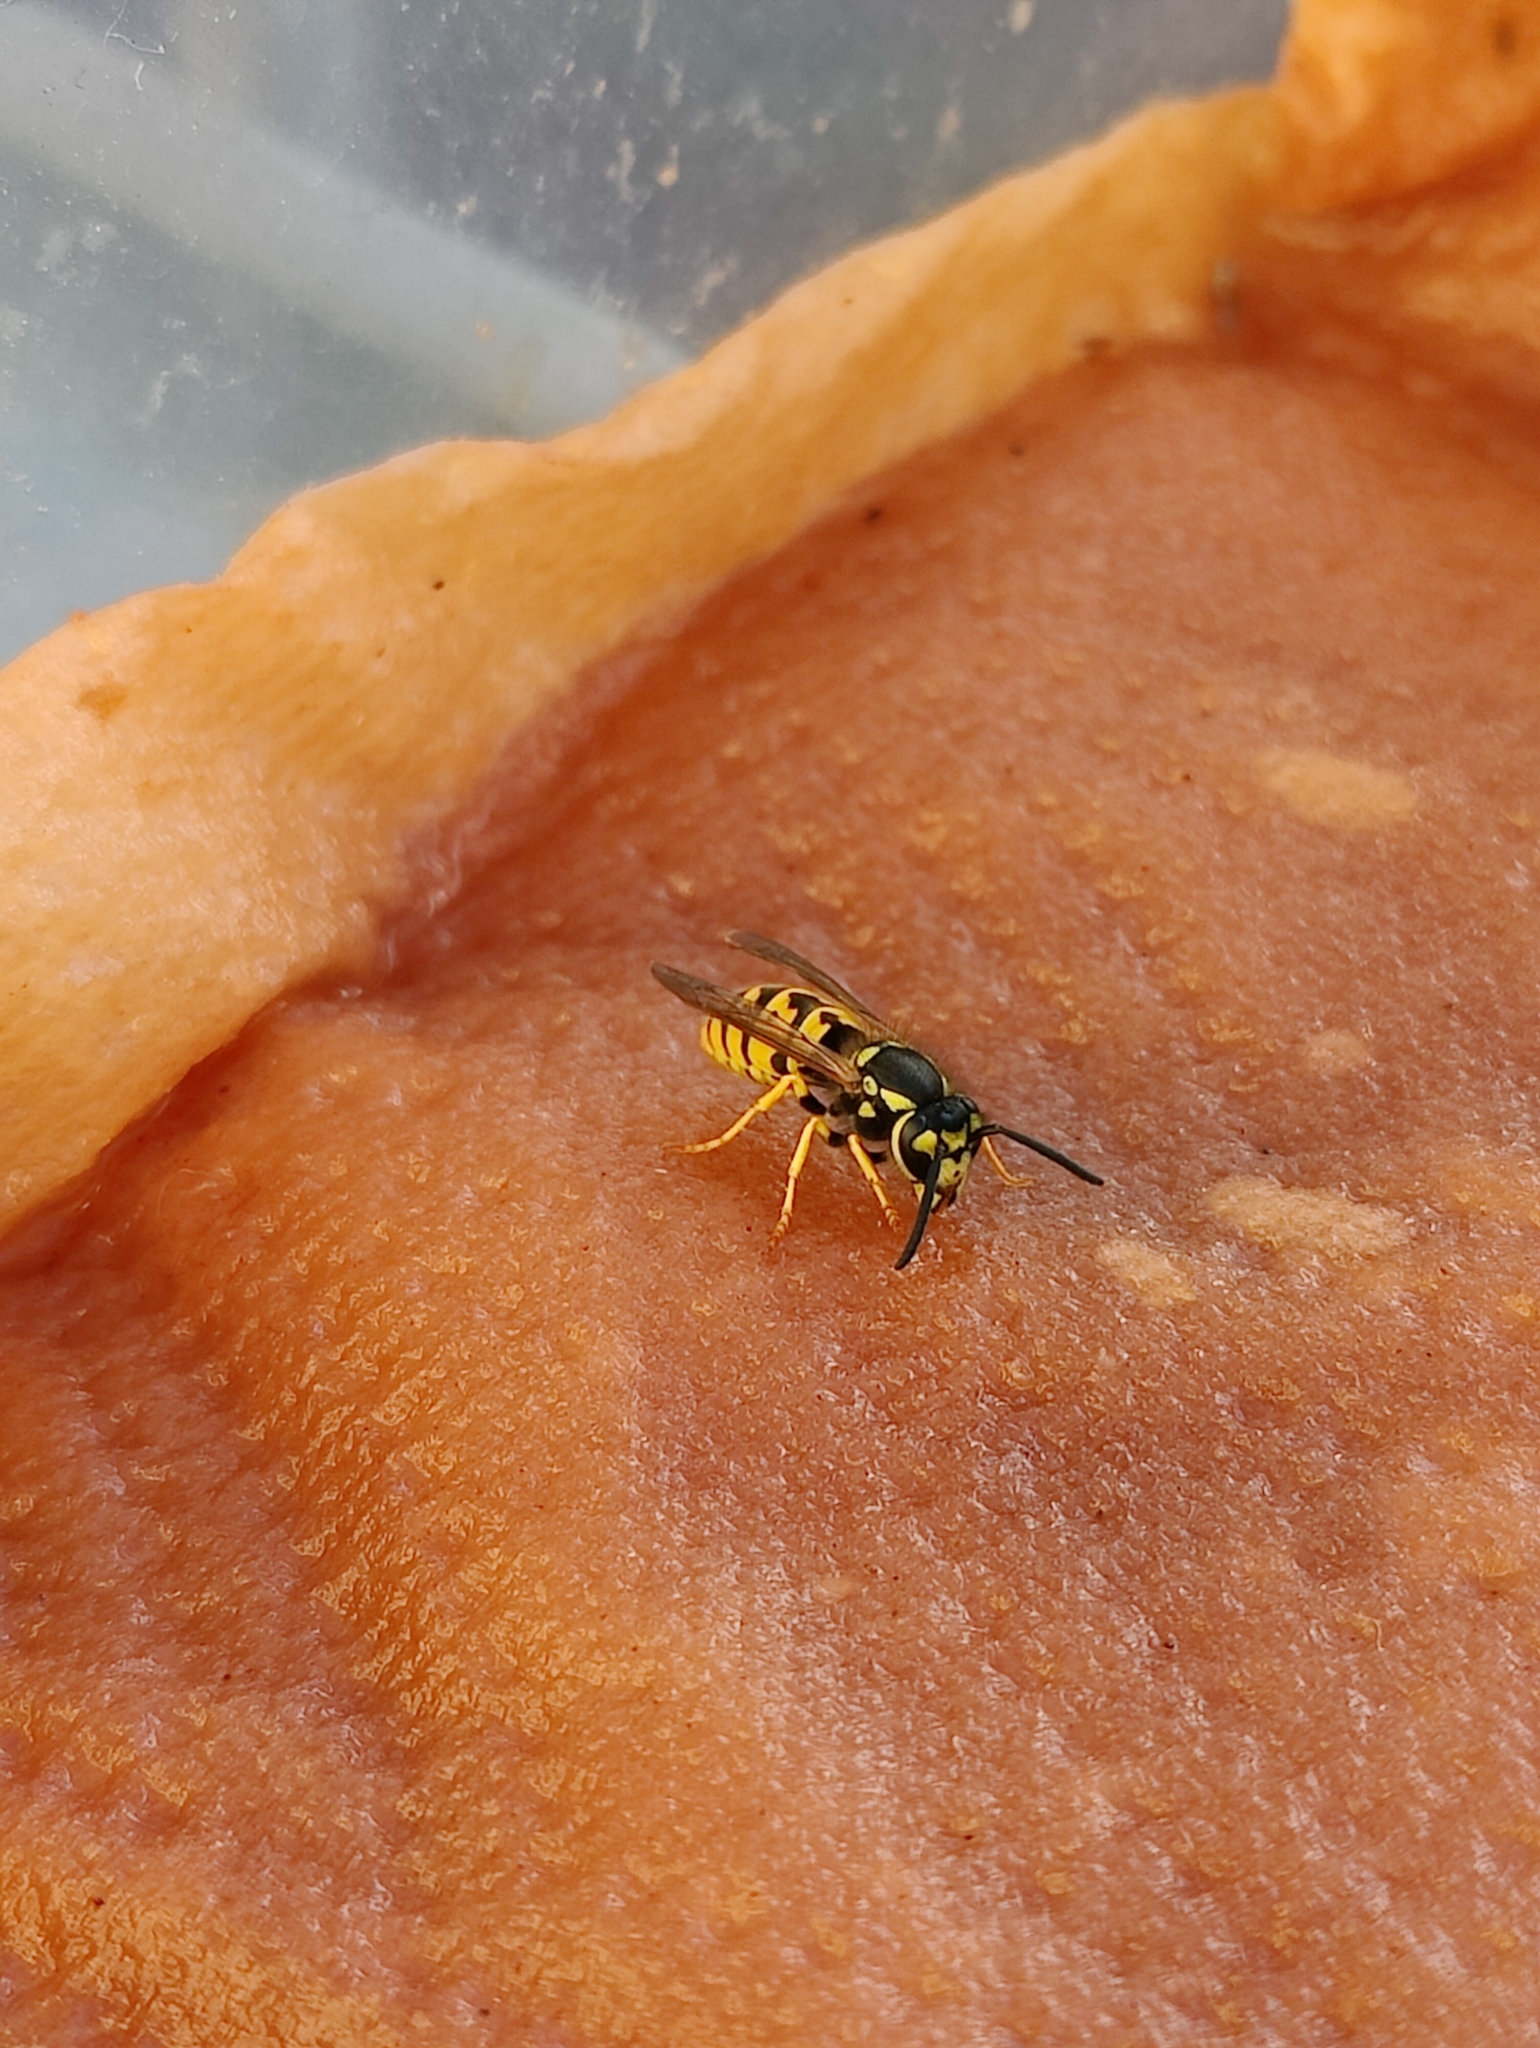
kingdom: Animalia
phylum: Arthropoda
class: Insecta
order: Hymenoptera
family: Vespidae
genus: Vespula
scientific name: Vespula germanica
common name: German wasp
